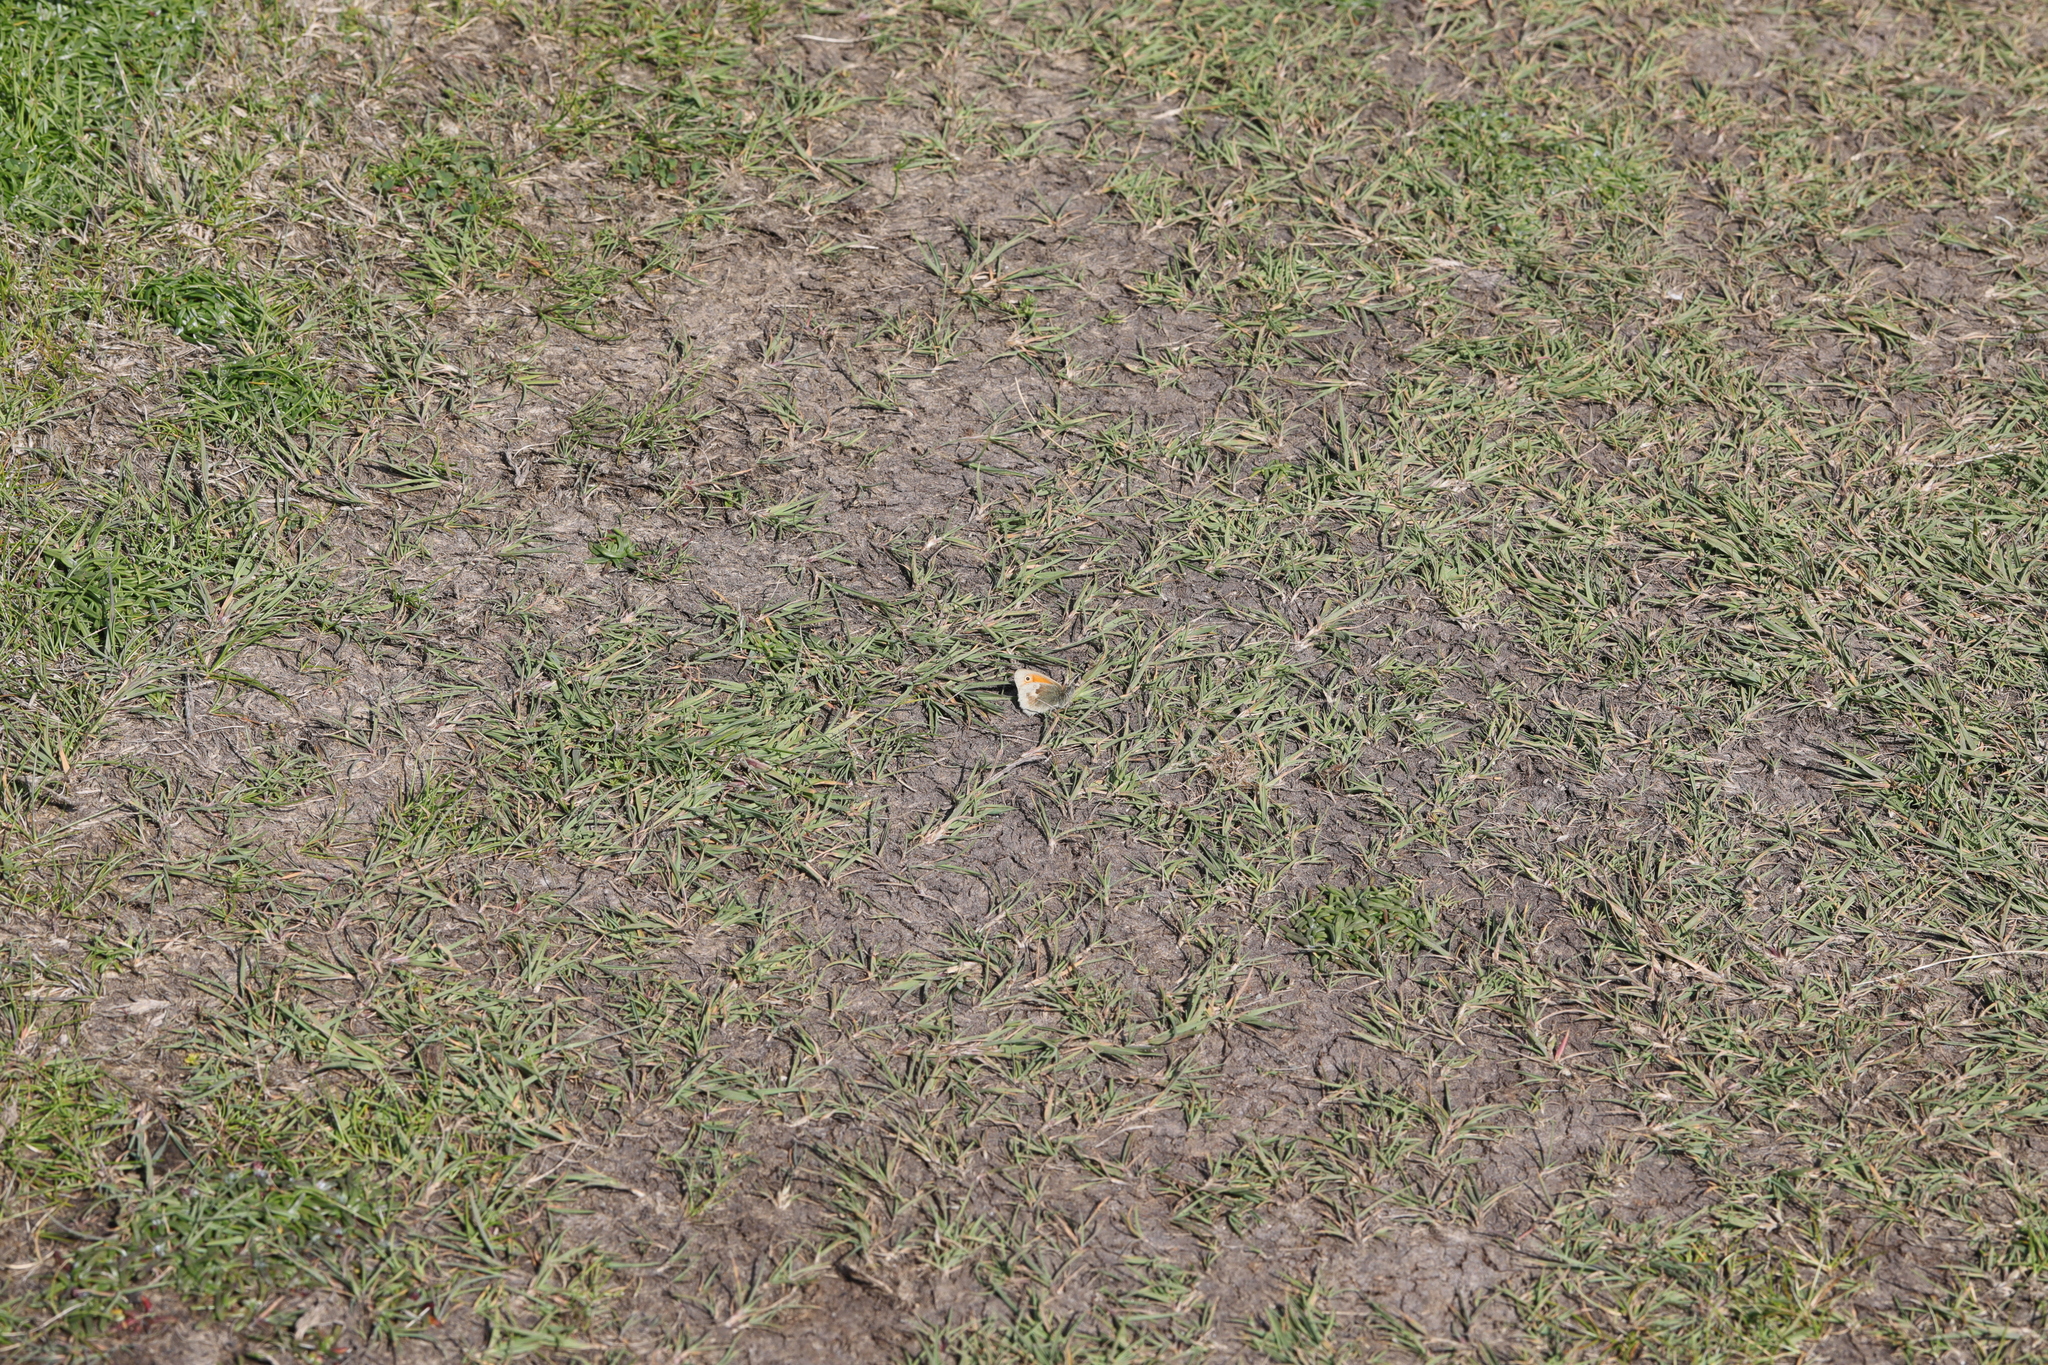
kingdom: Animalia
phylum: Arthropoda
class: Insecta
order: Lepidoptera
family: Nymphalidae
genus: Coenonympha
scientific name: Coenonympha pamphilus
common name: Small heath
